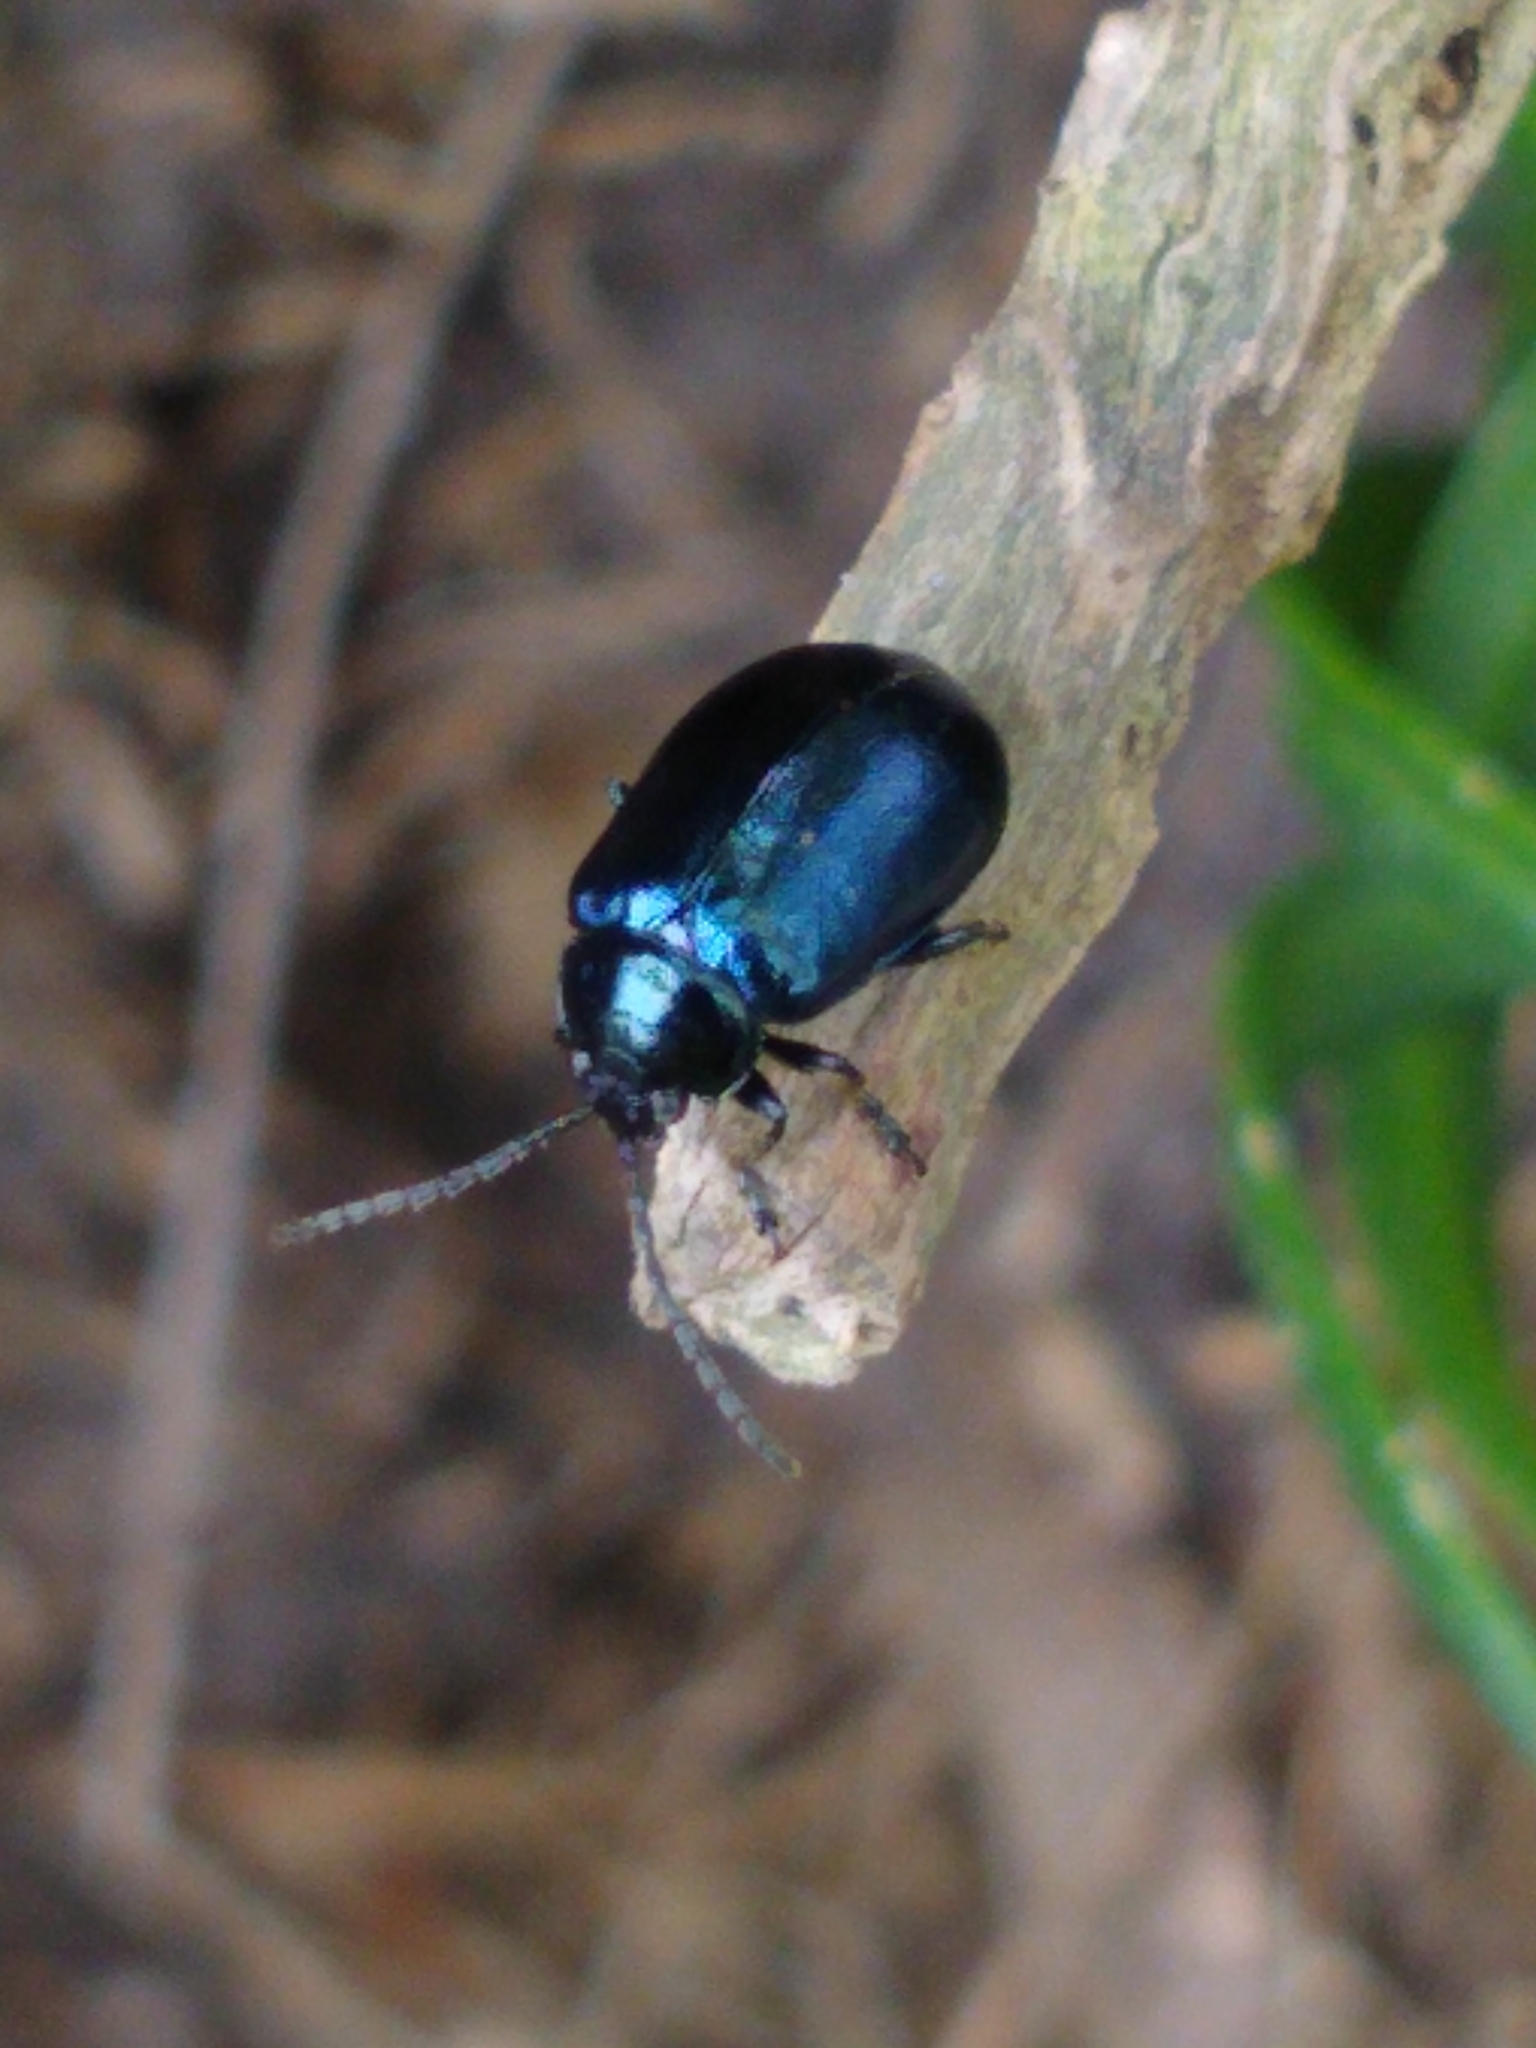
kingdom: Animalia
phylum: Arthropoda
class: Insecta
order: Coleoptera
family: Chrysomelidae
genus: Agelastica
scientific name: Agelastica alni
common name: Alder leaf beetle
